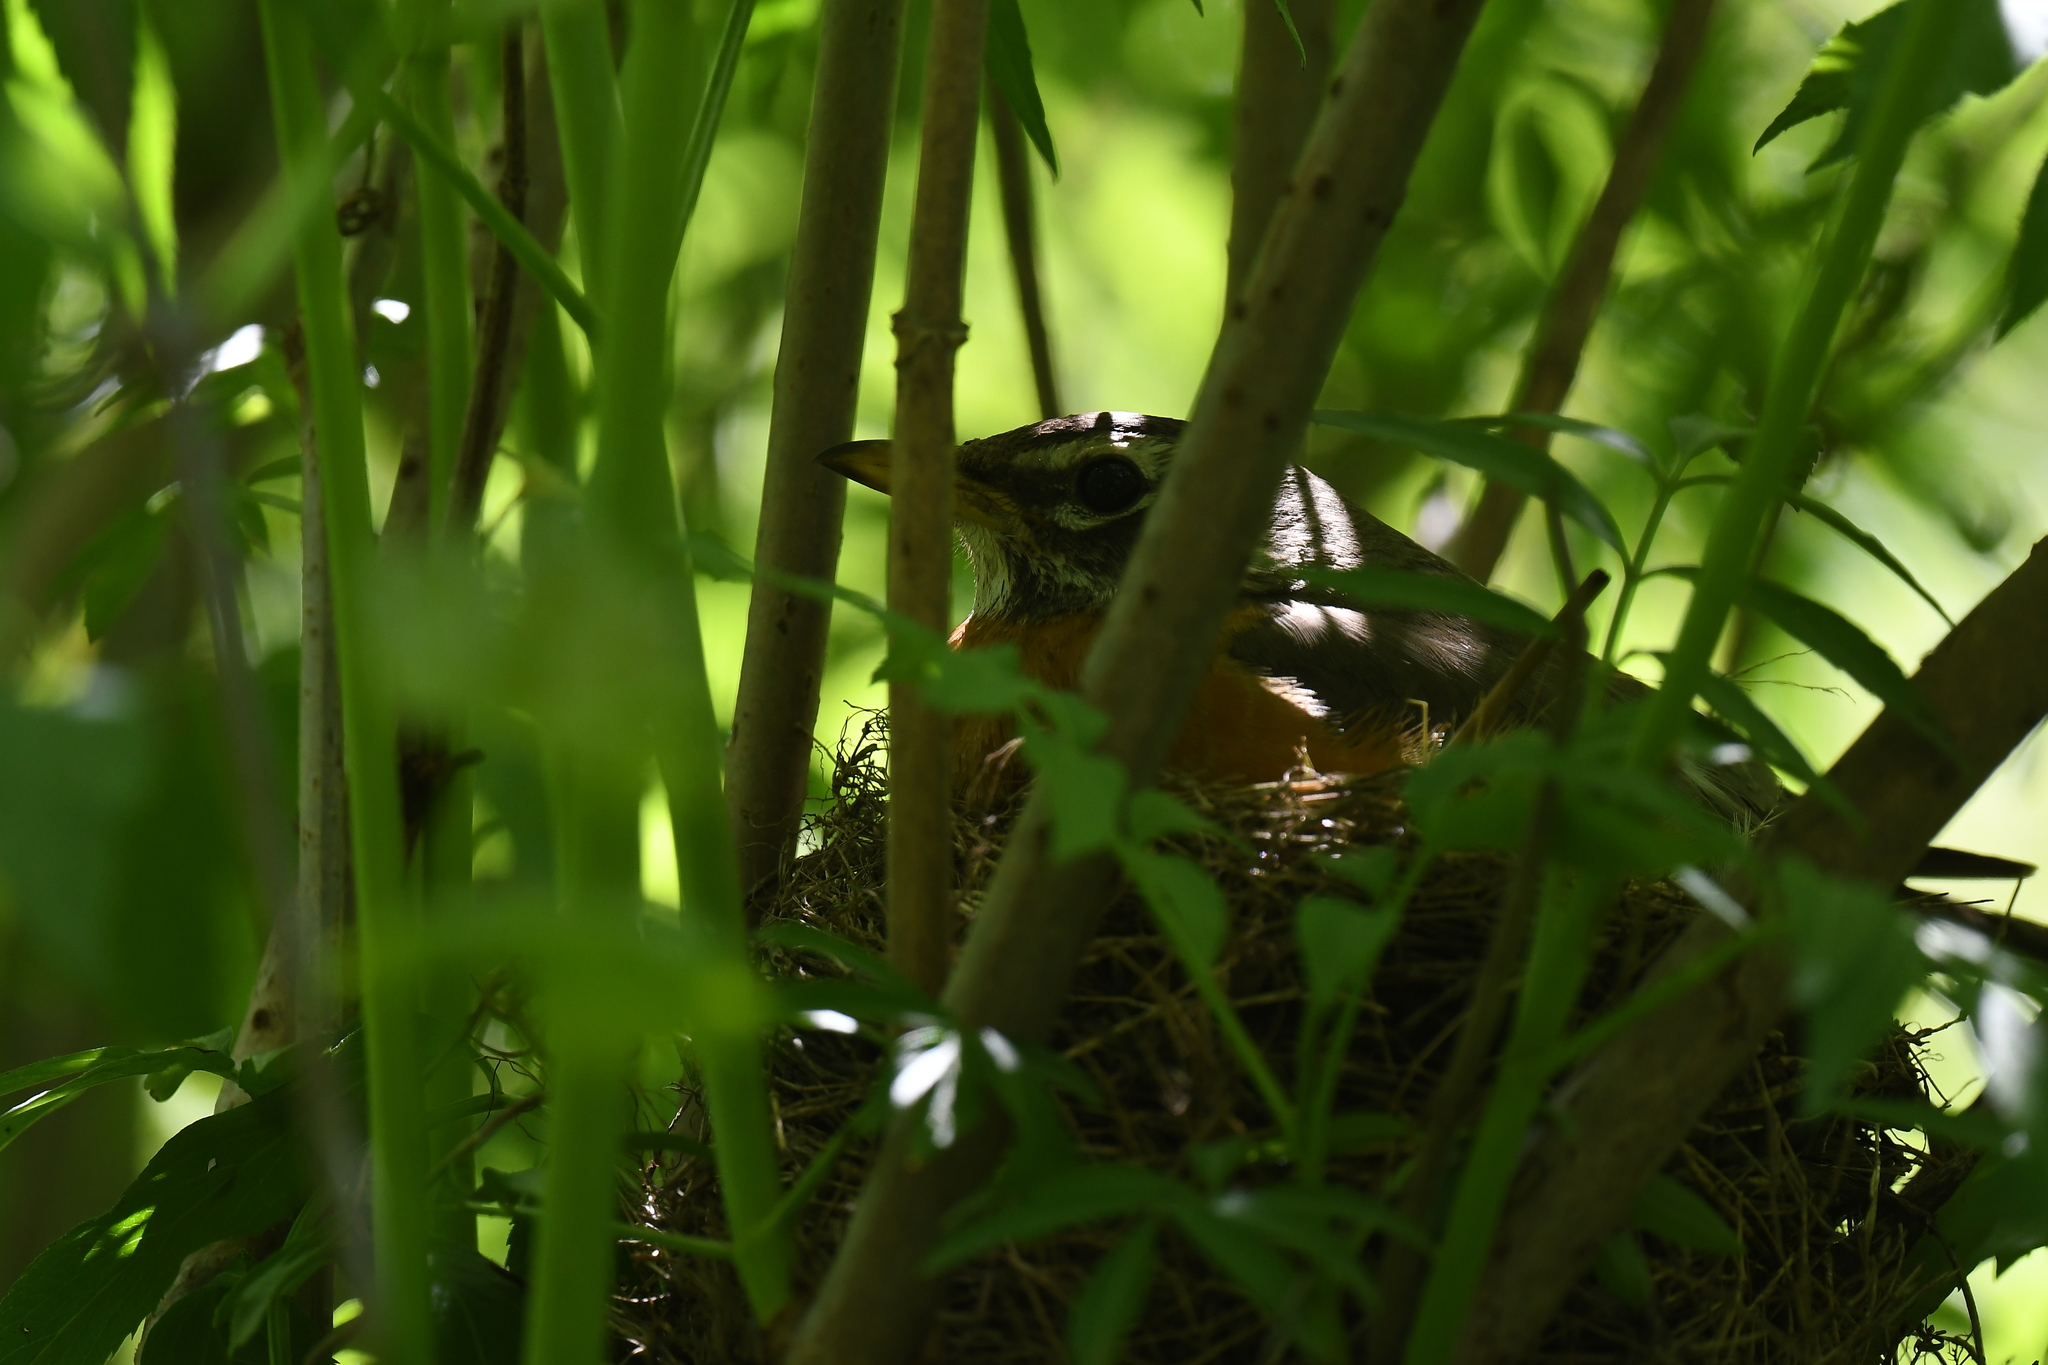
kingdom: Animalia
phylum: Chordata
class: Aves
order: Passeriformes
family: Turdidae
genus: Turdus
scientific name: Turdus migratorius
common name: American robin
